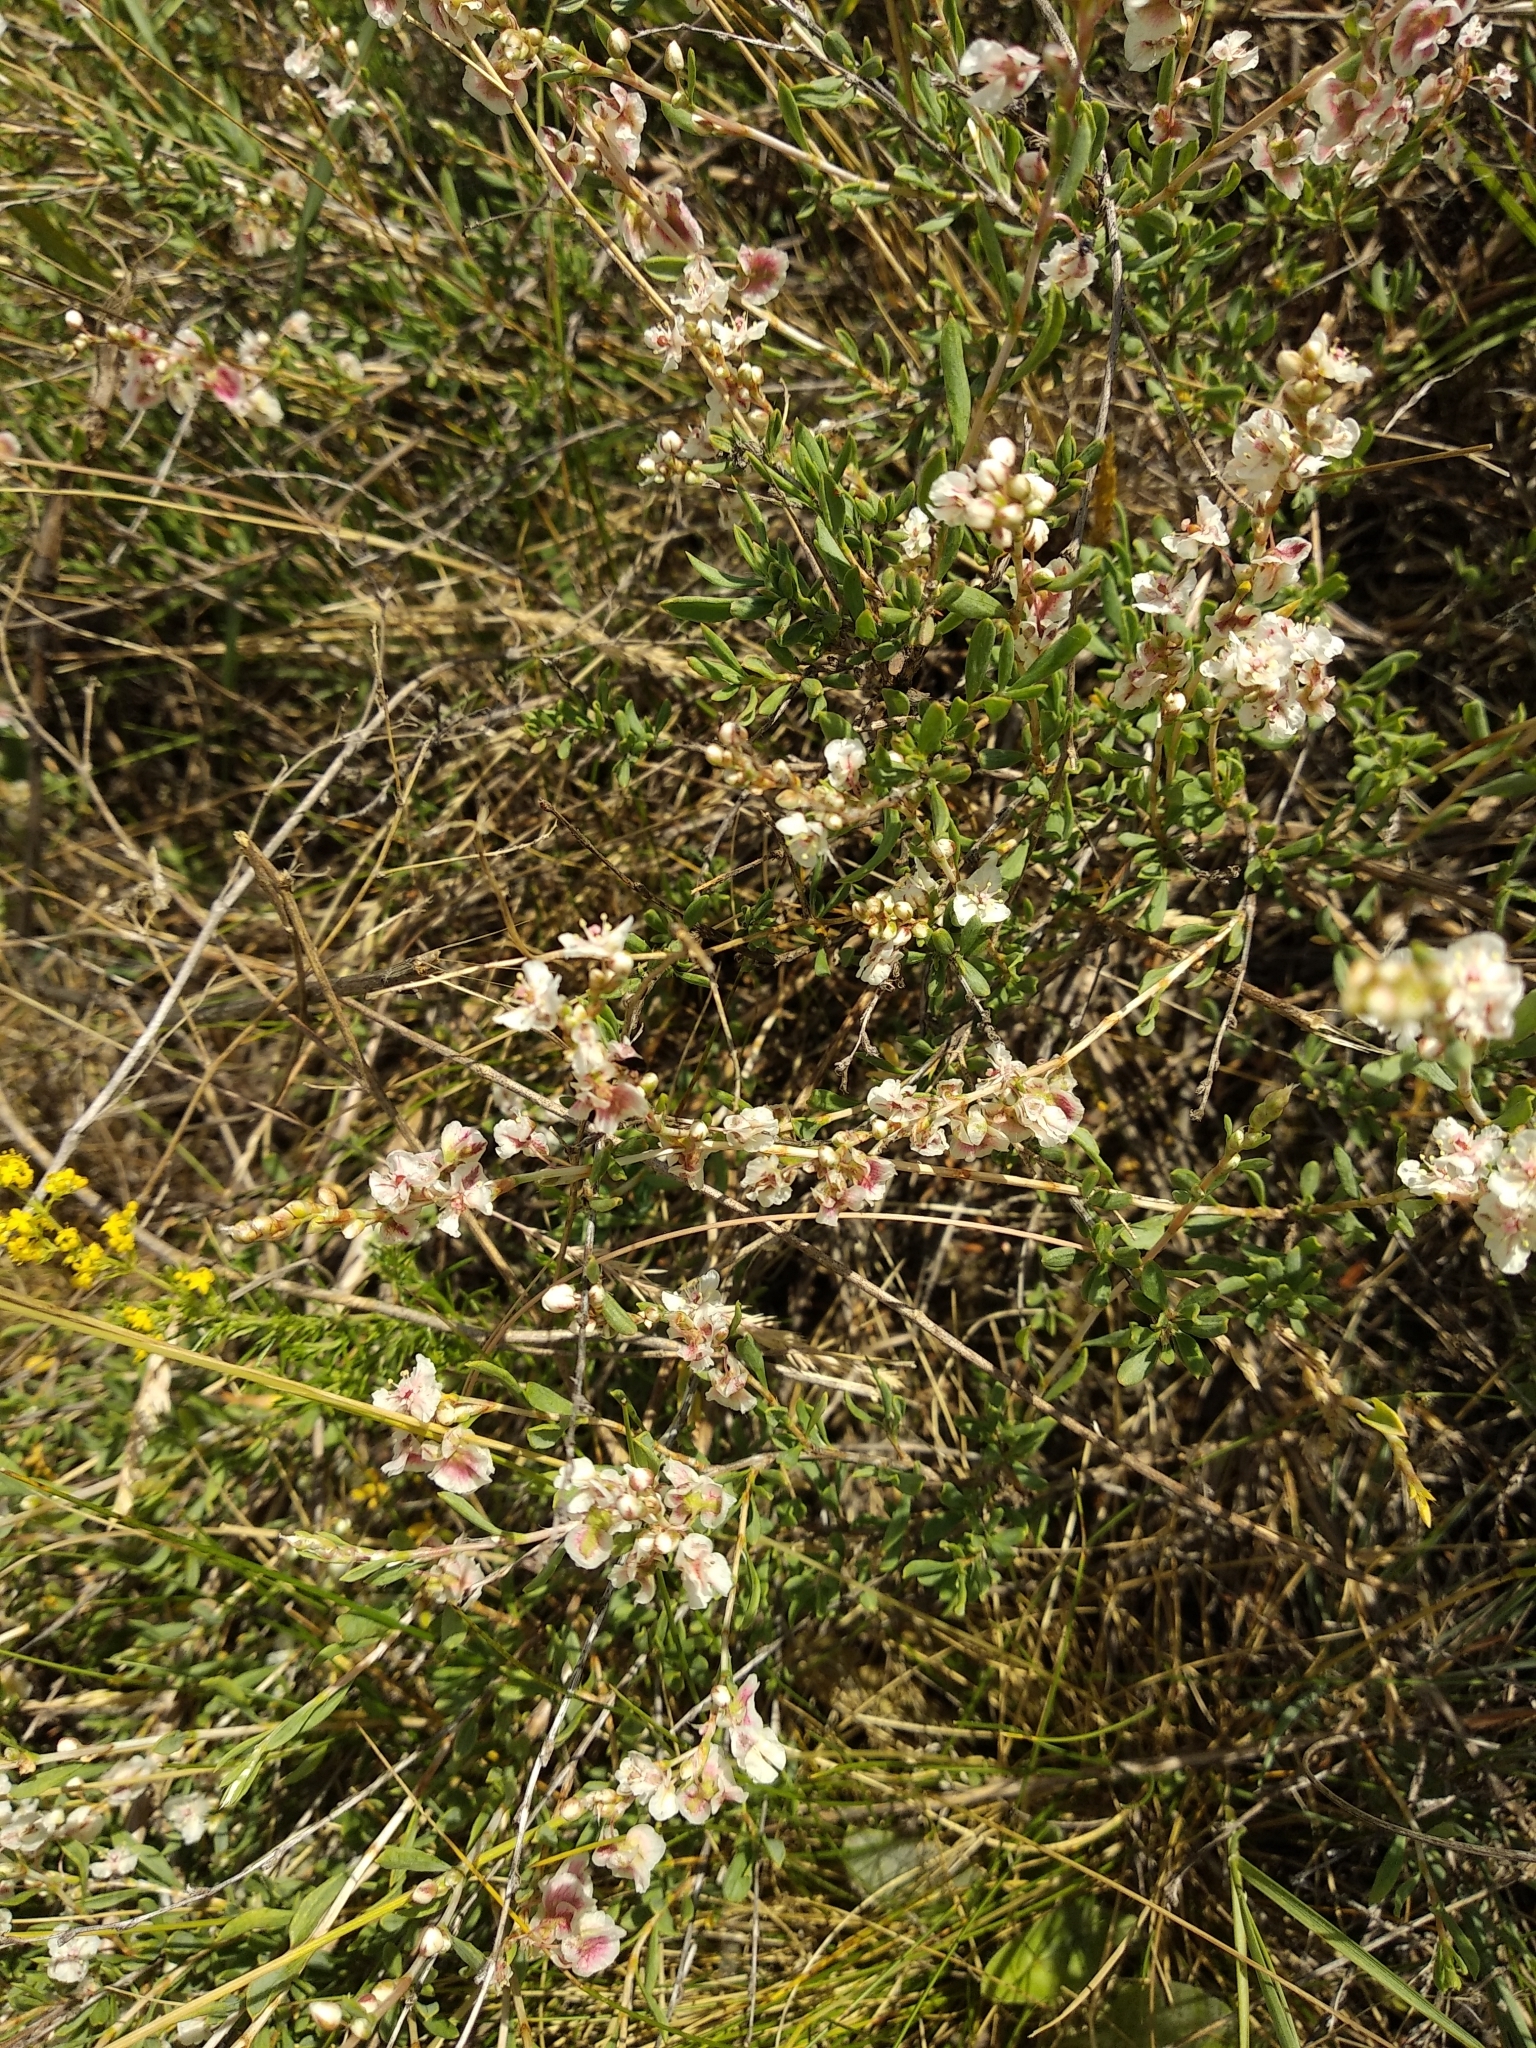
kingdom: Plantae
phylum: Tracheophyta
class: Magnoliopsida
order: Caryophyllales
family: Polygonaceae
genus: Atraphaxis
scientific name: Atraphaxis frutescens
